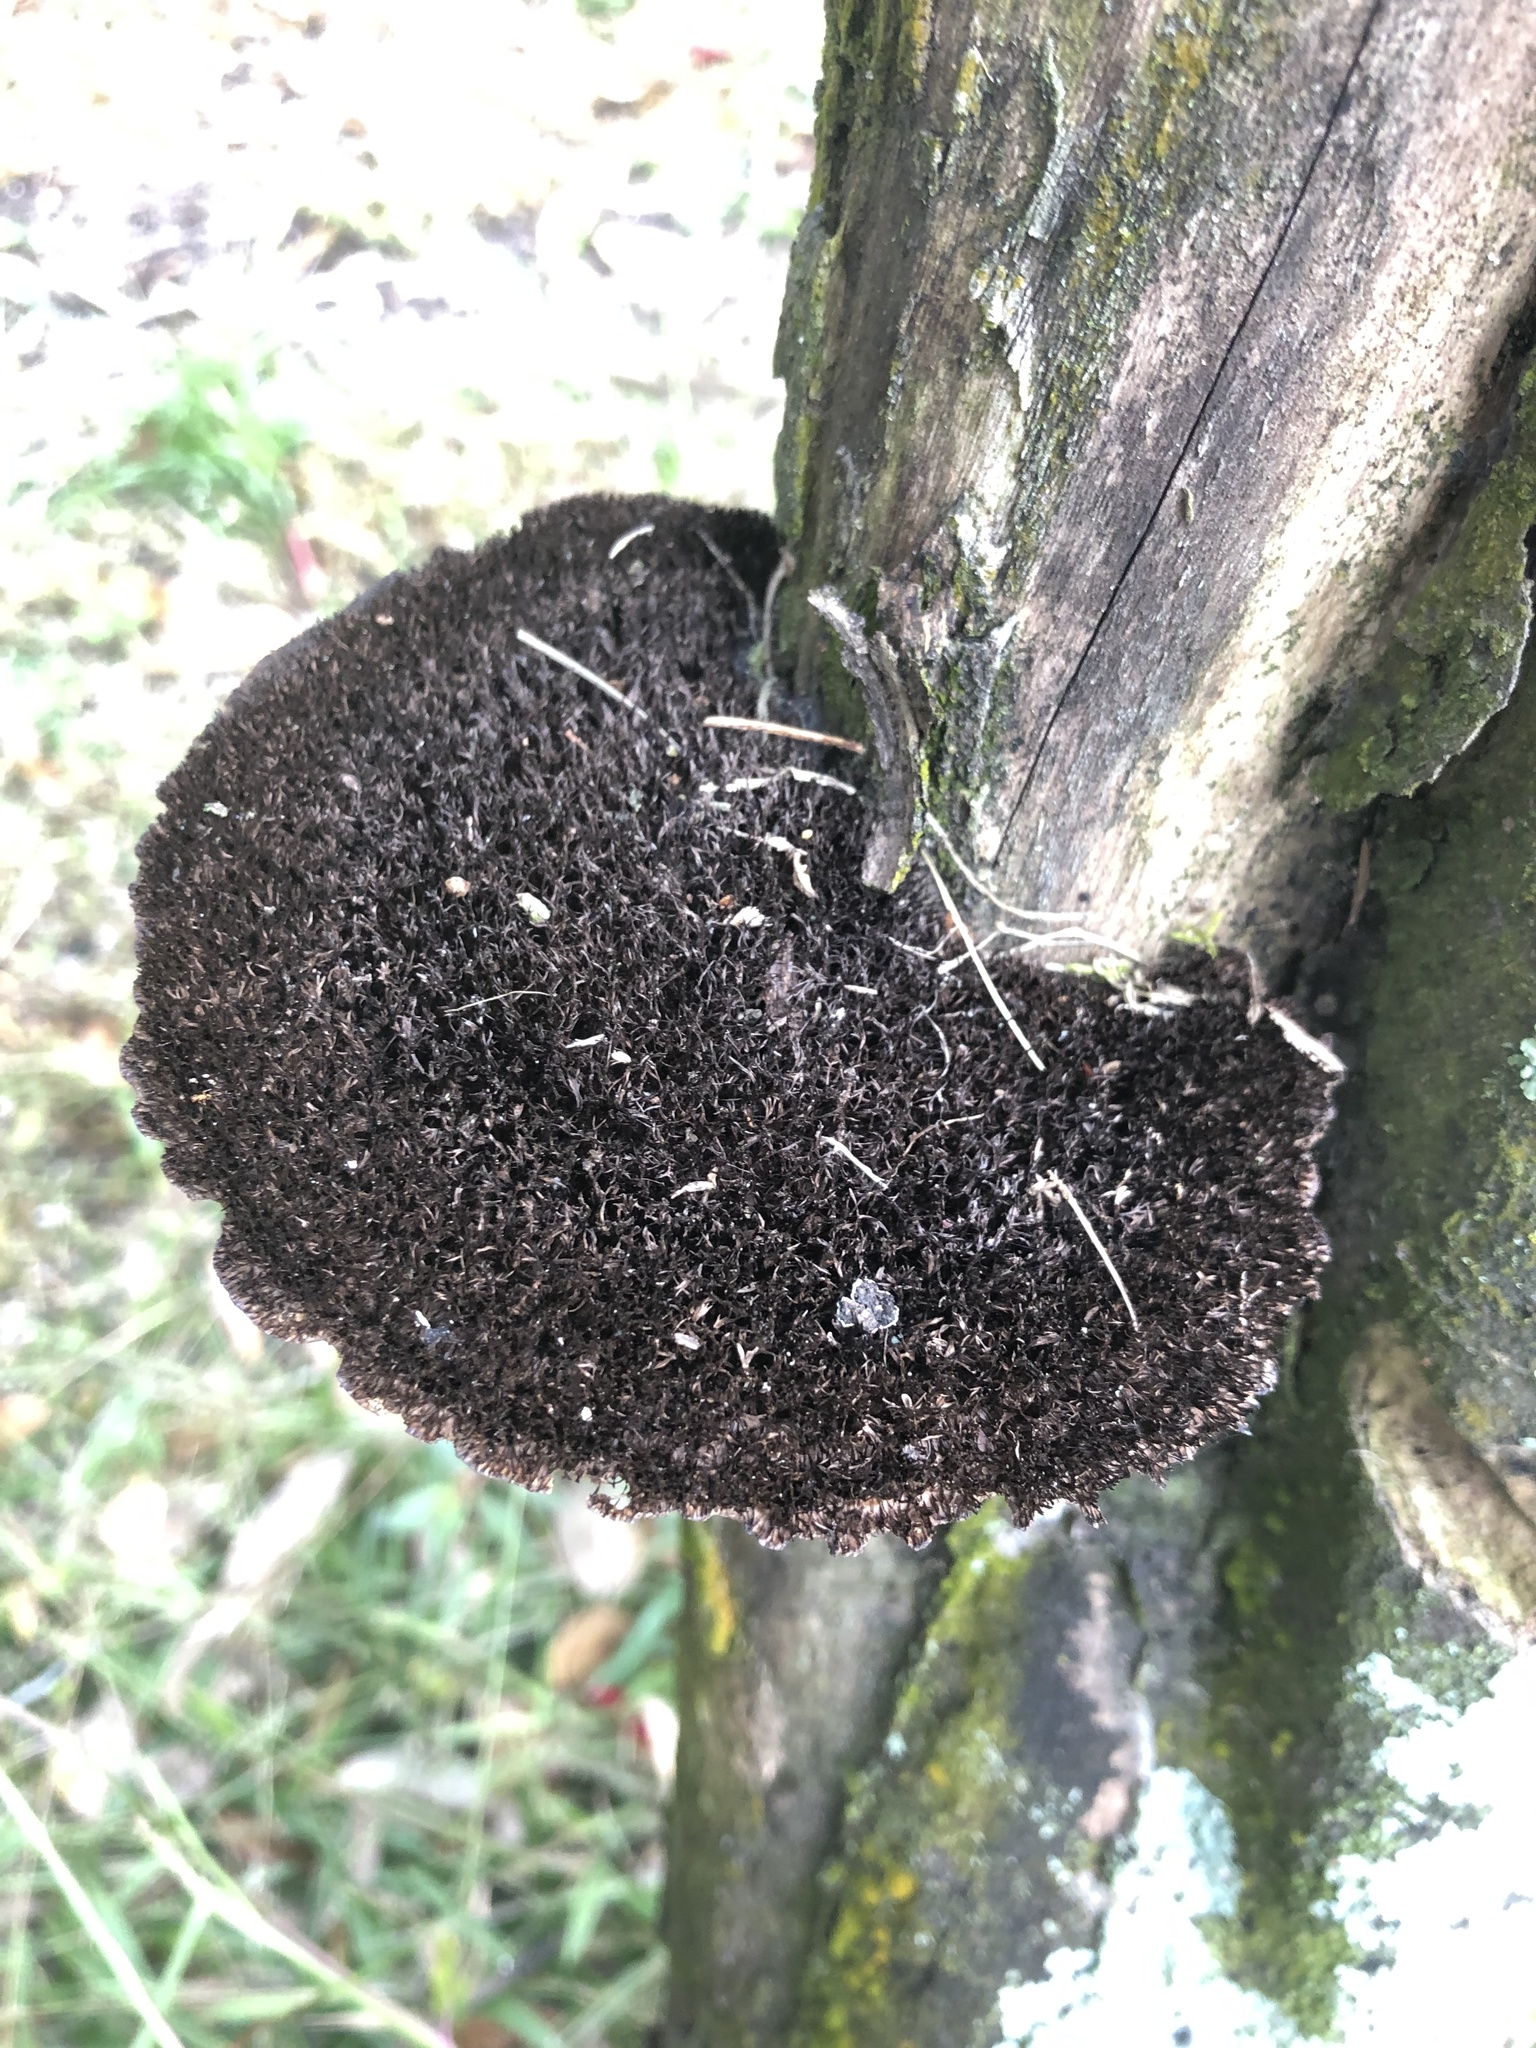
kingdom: Fungi
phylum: Basidiomycota
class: Agaricomycetes
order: Polyporales
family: Cerrenaceae
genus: Cerrena
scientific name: Cerrena hydnoides
